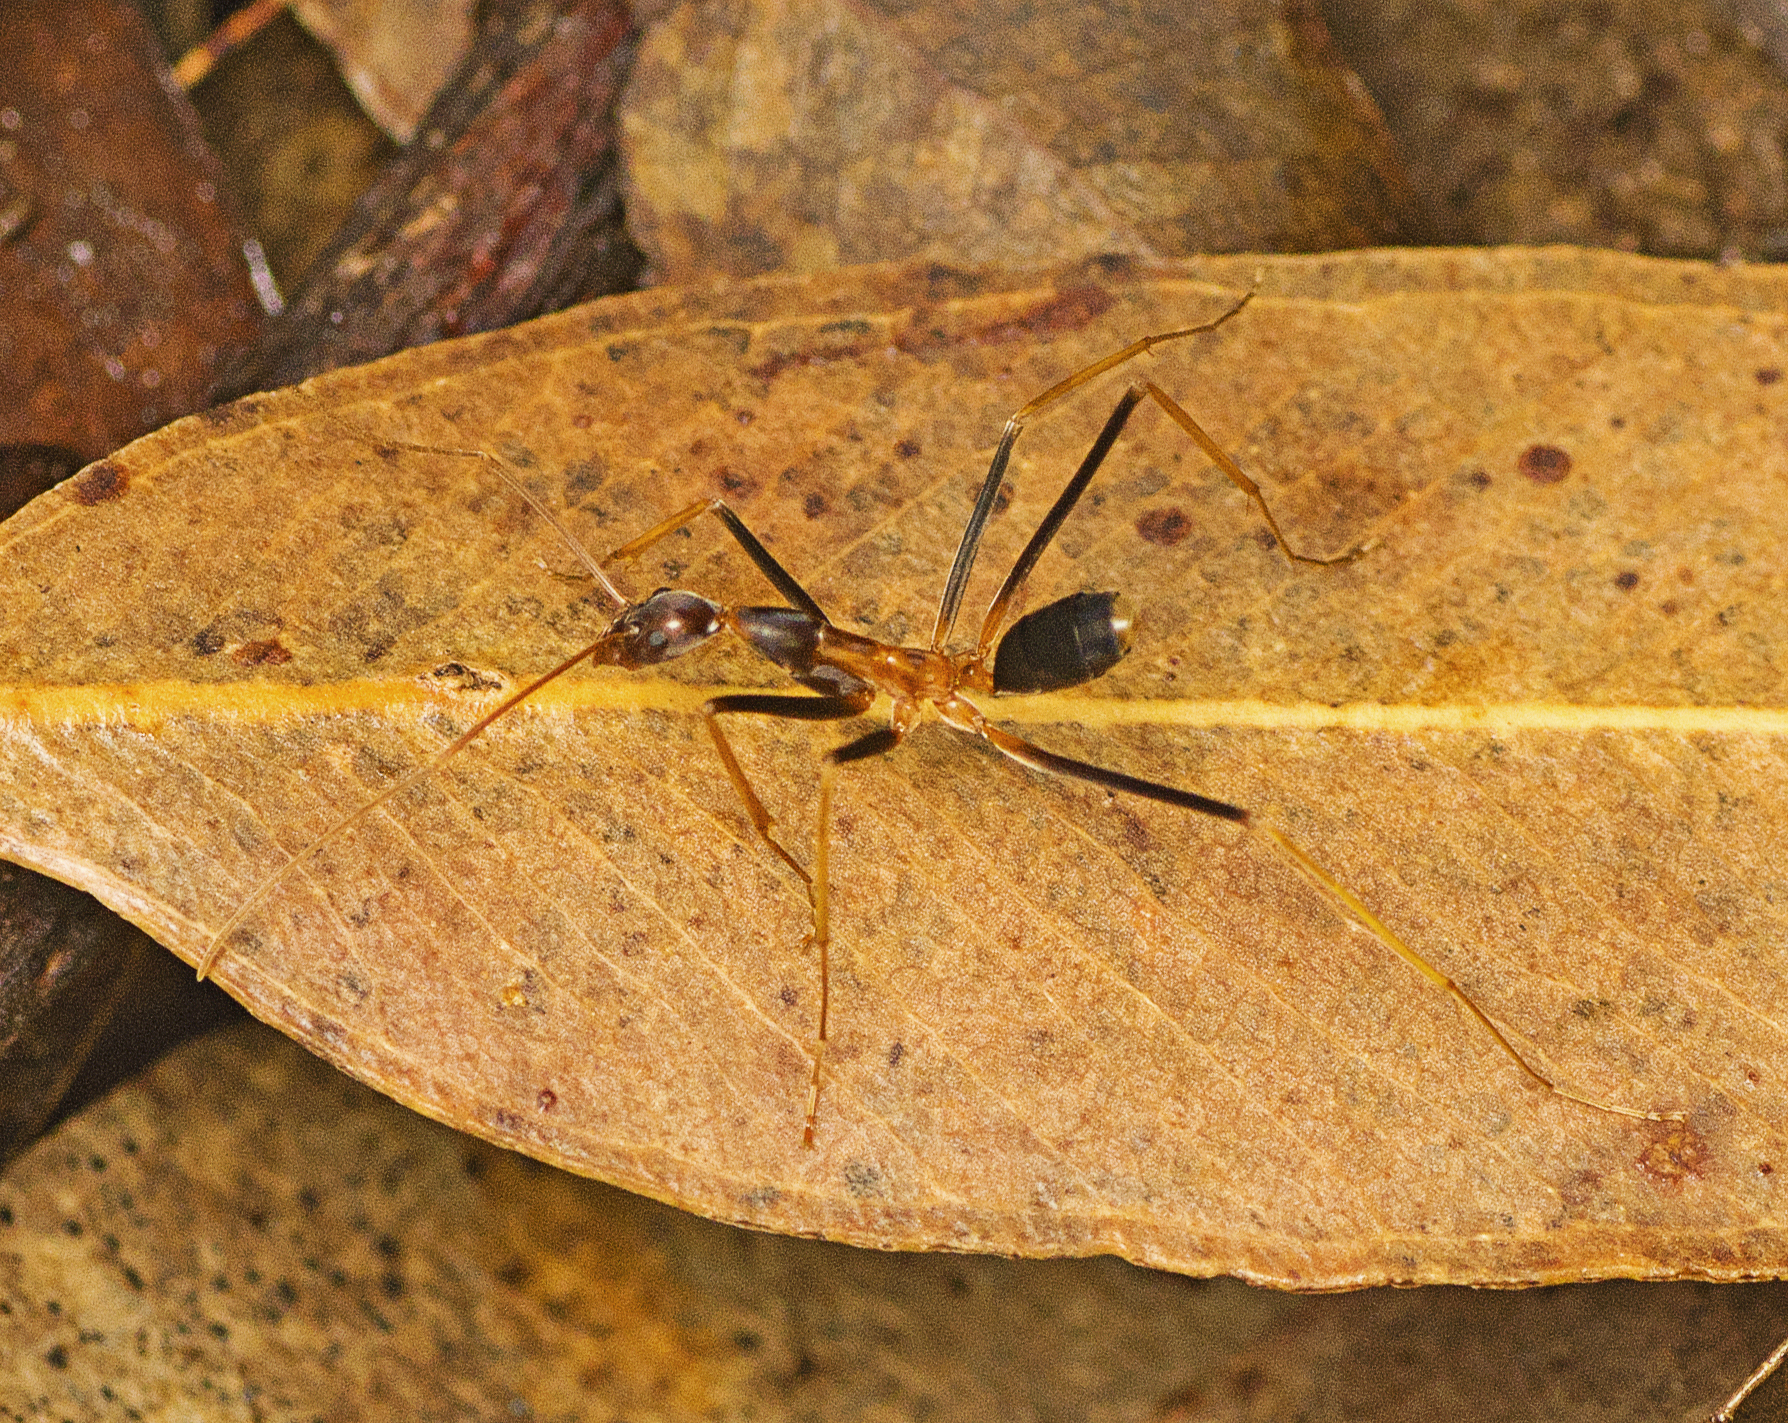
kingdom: Animalia
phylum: Arthropoda
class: Insecta
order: Hymenoptera
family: Formicidae
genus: Leptomyrmex
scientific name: Leptomyrmex rothneyi
